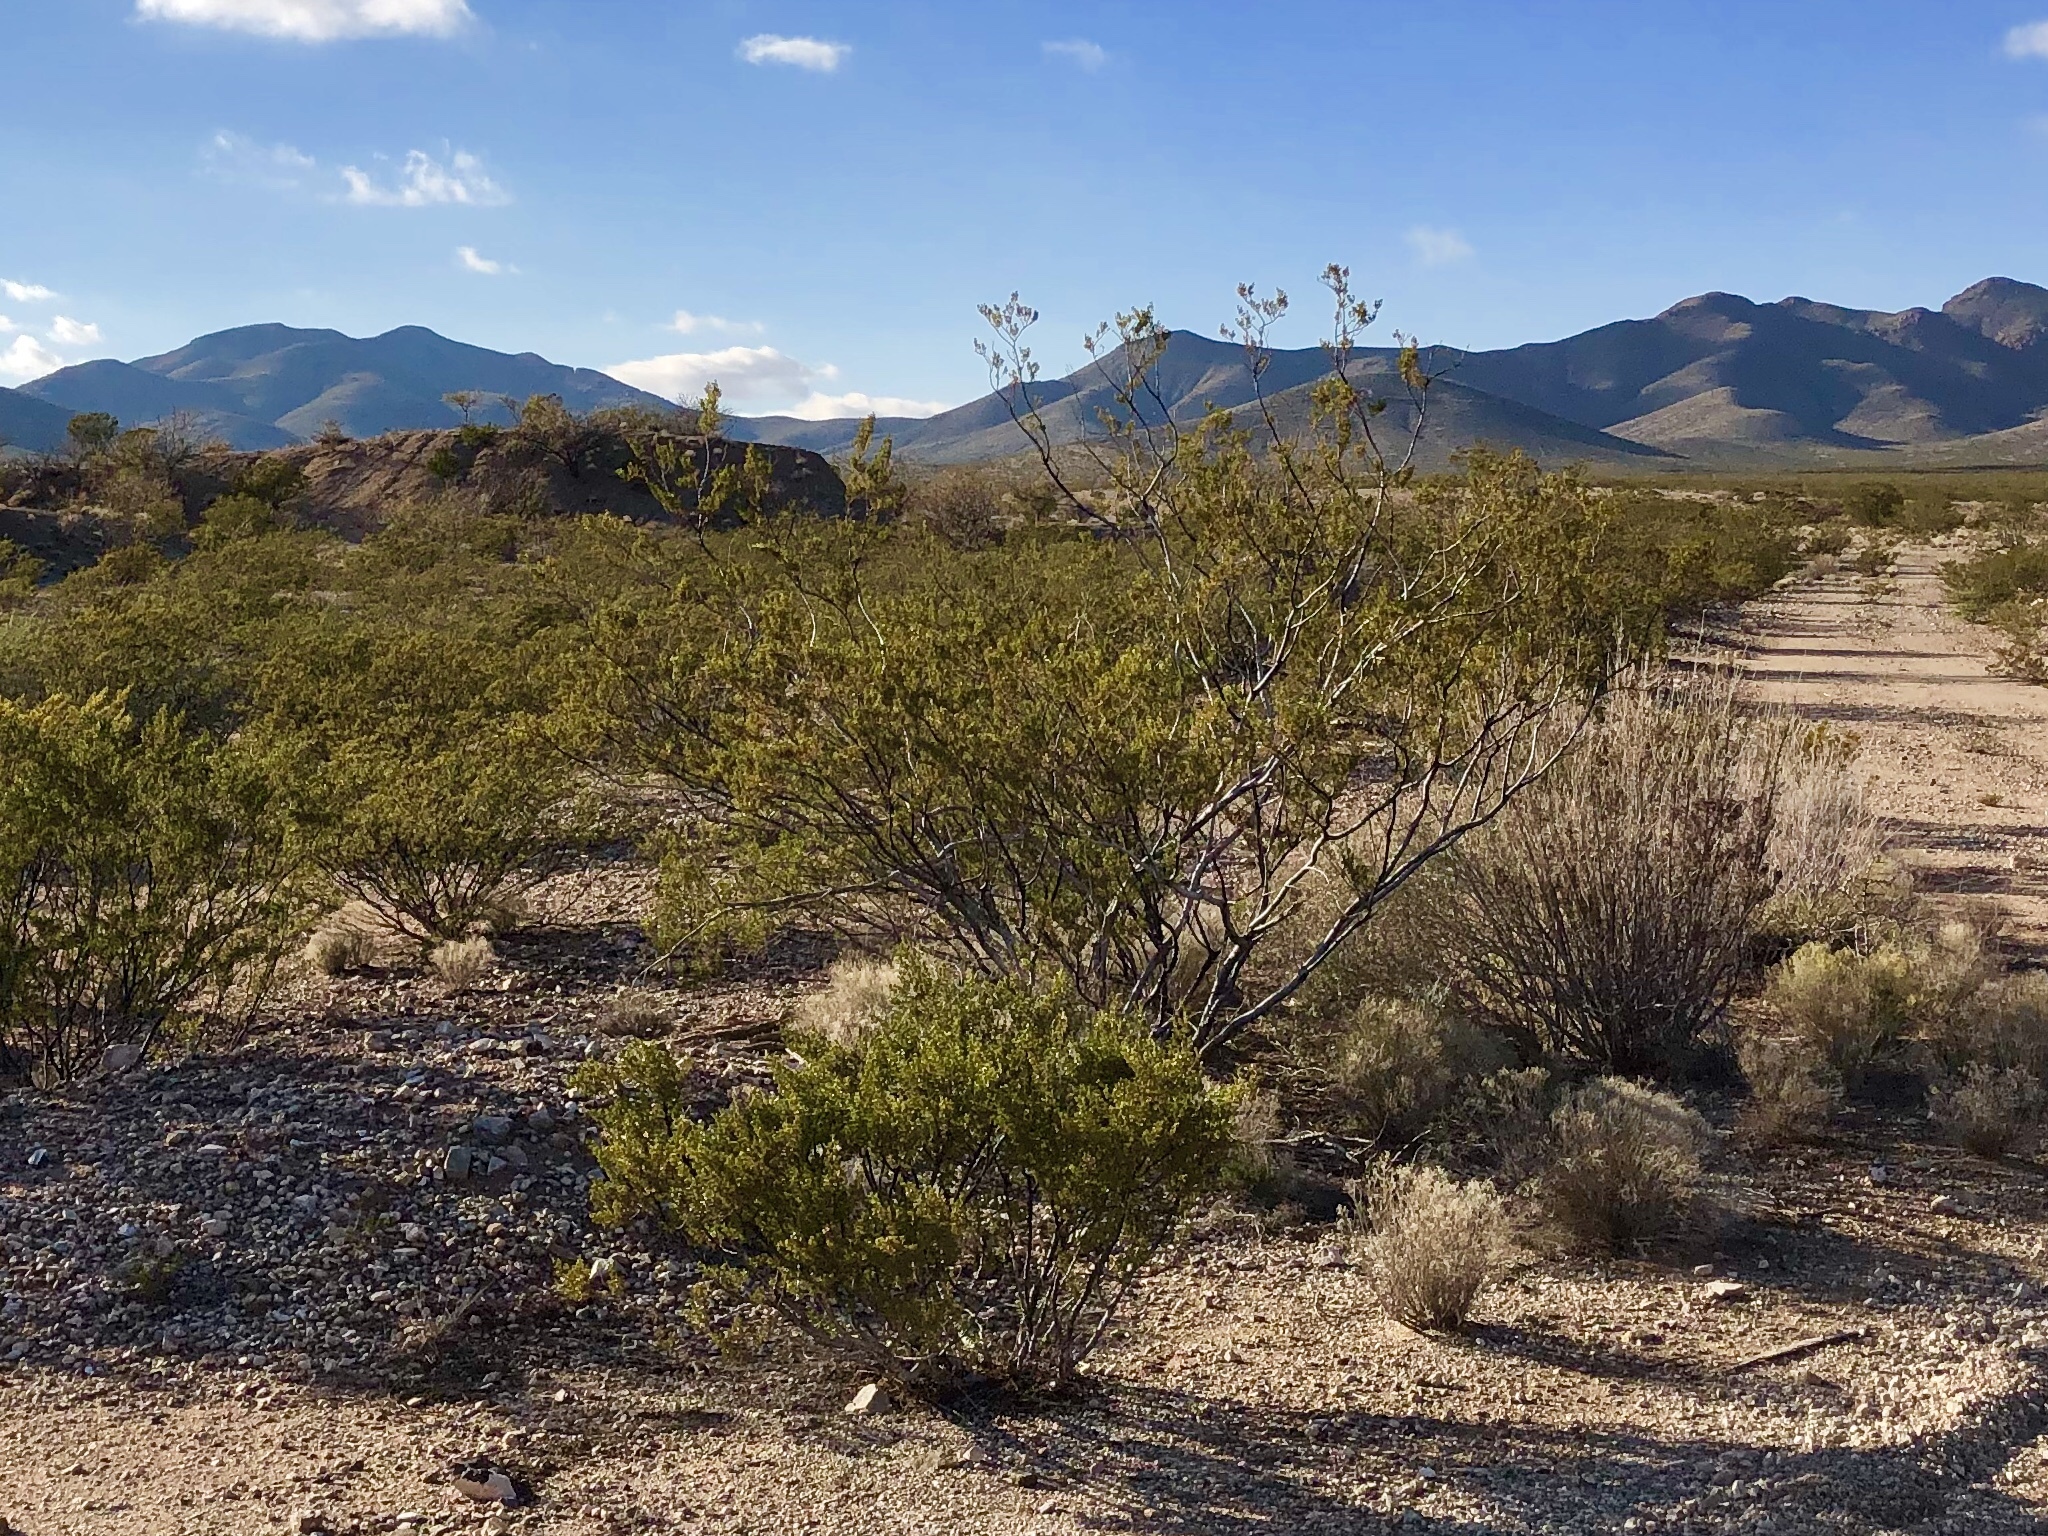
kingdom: Plantae
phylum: Tracheophyta
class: Magnoliopsida
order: Zygophyllales
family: Zygophyllaceae
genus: Larrea
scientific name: Larrea tridentata
